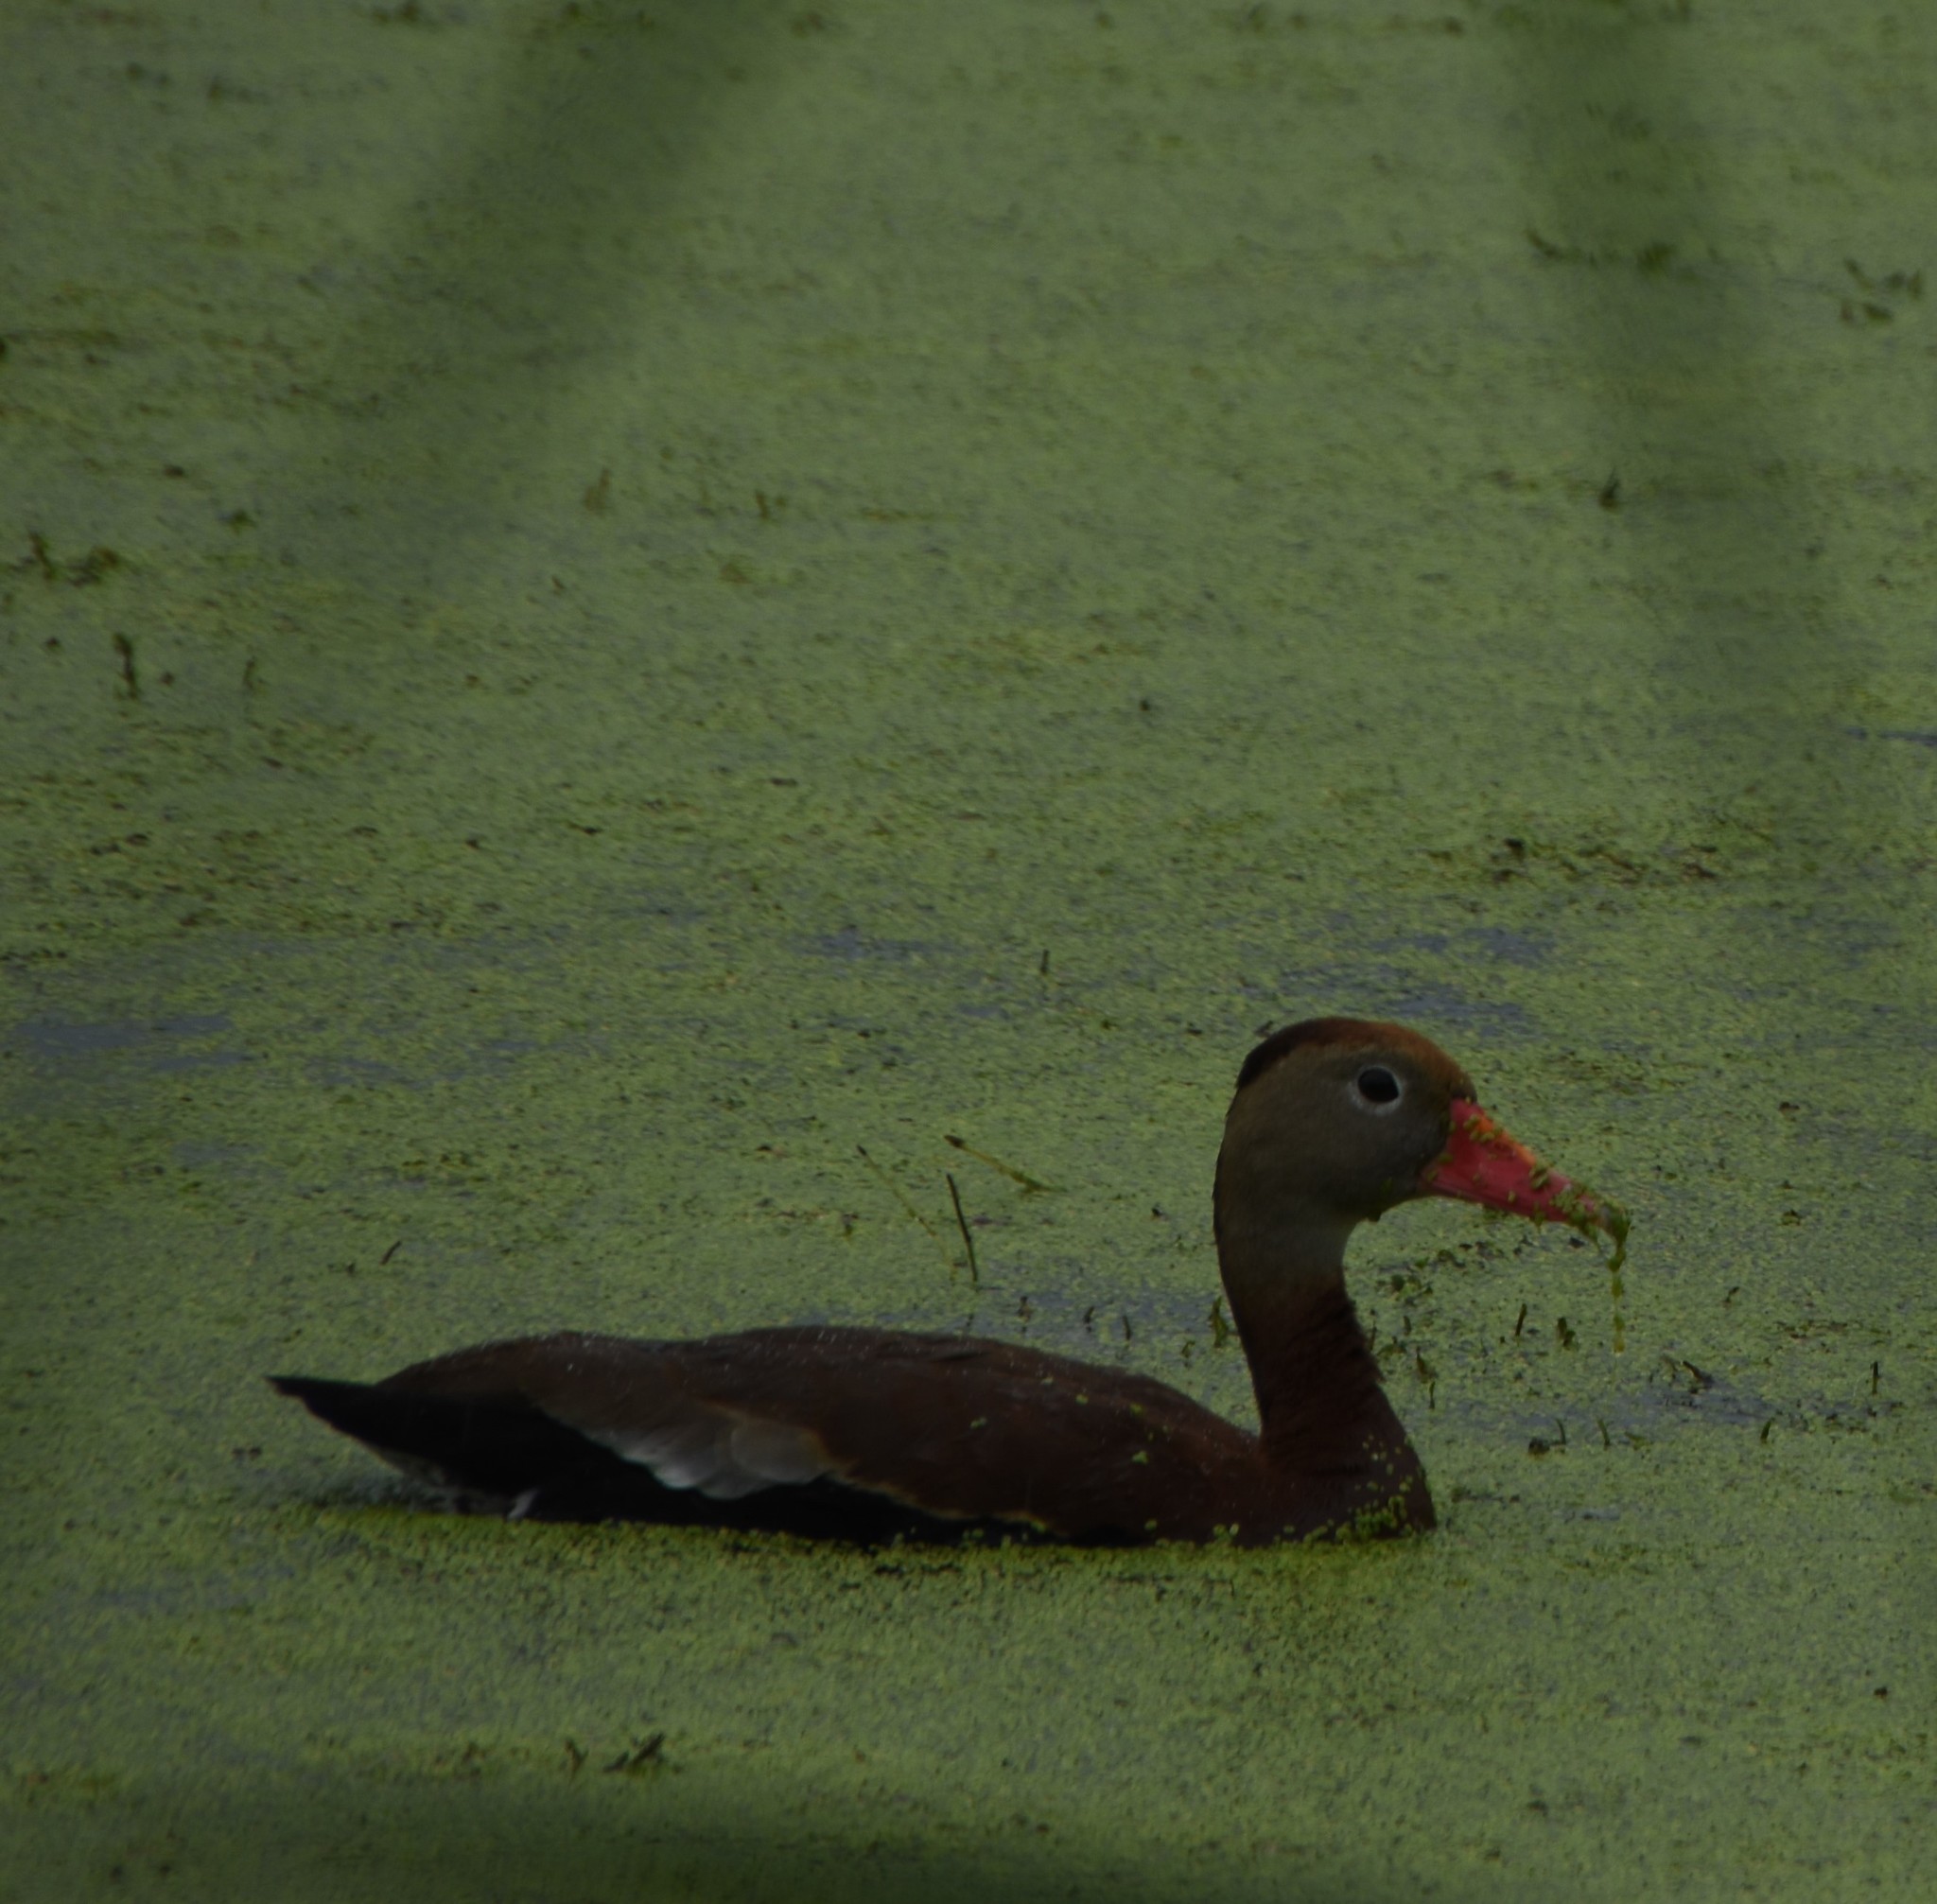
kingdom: Animalia
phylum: Chordata
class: Aves
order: Anseriformes
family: Anatidae
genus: Dendrocygna
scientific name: Dendrocygna autumnalis
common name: Black-bellied whistling duck
